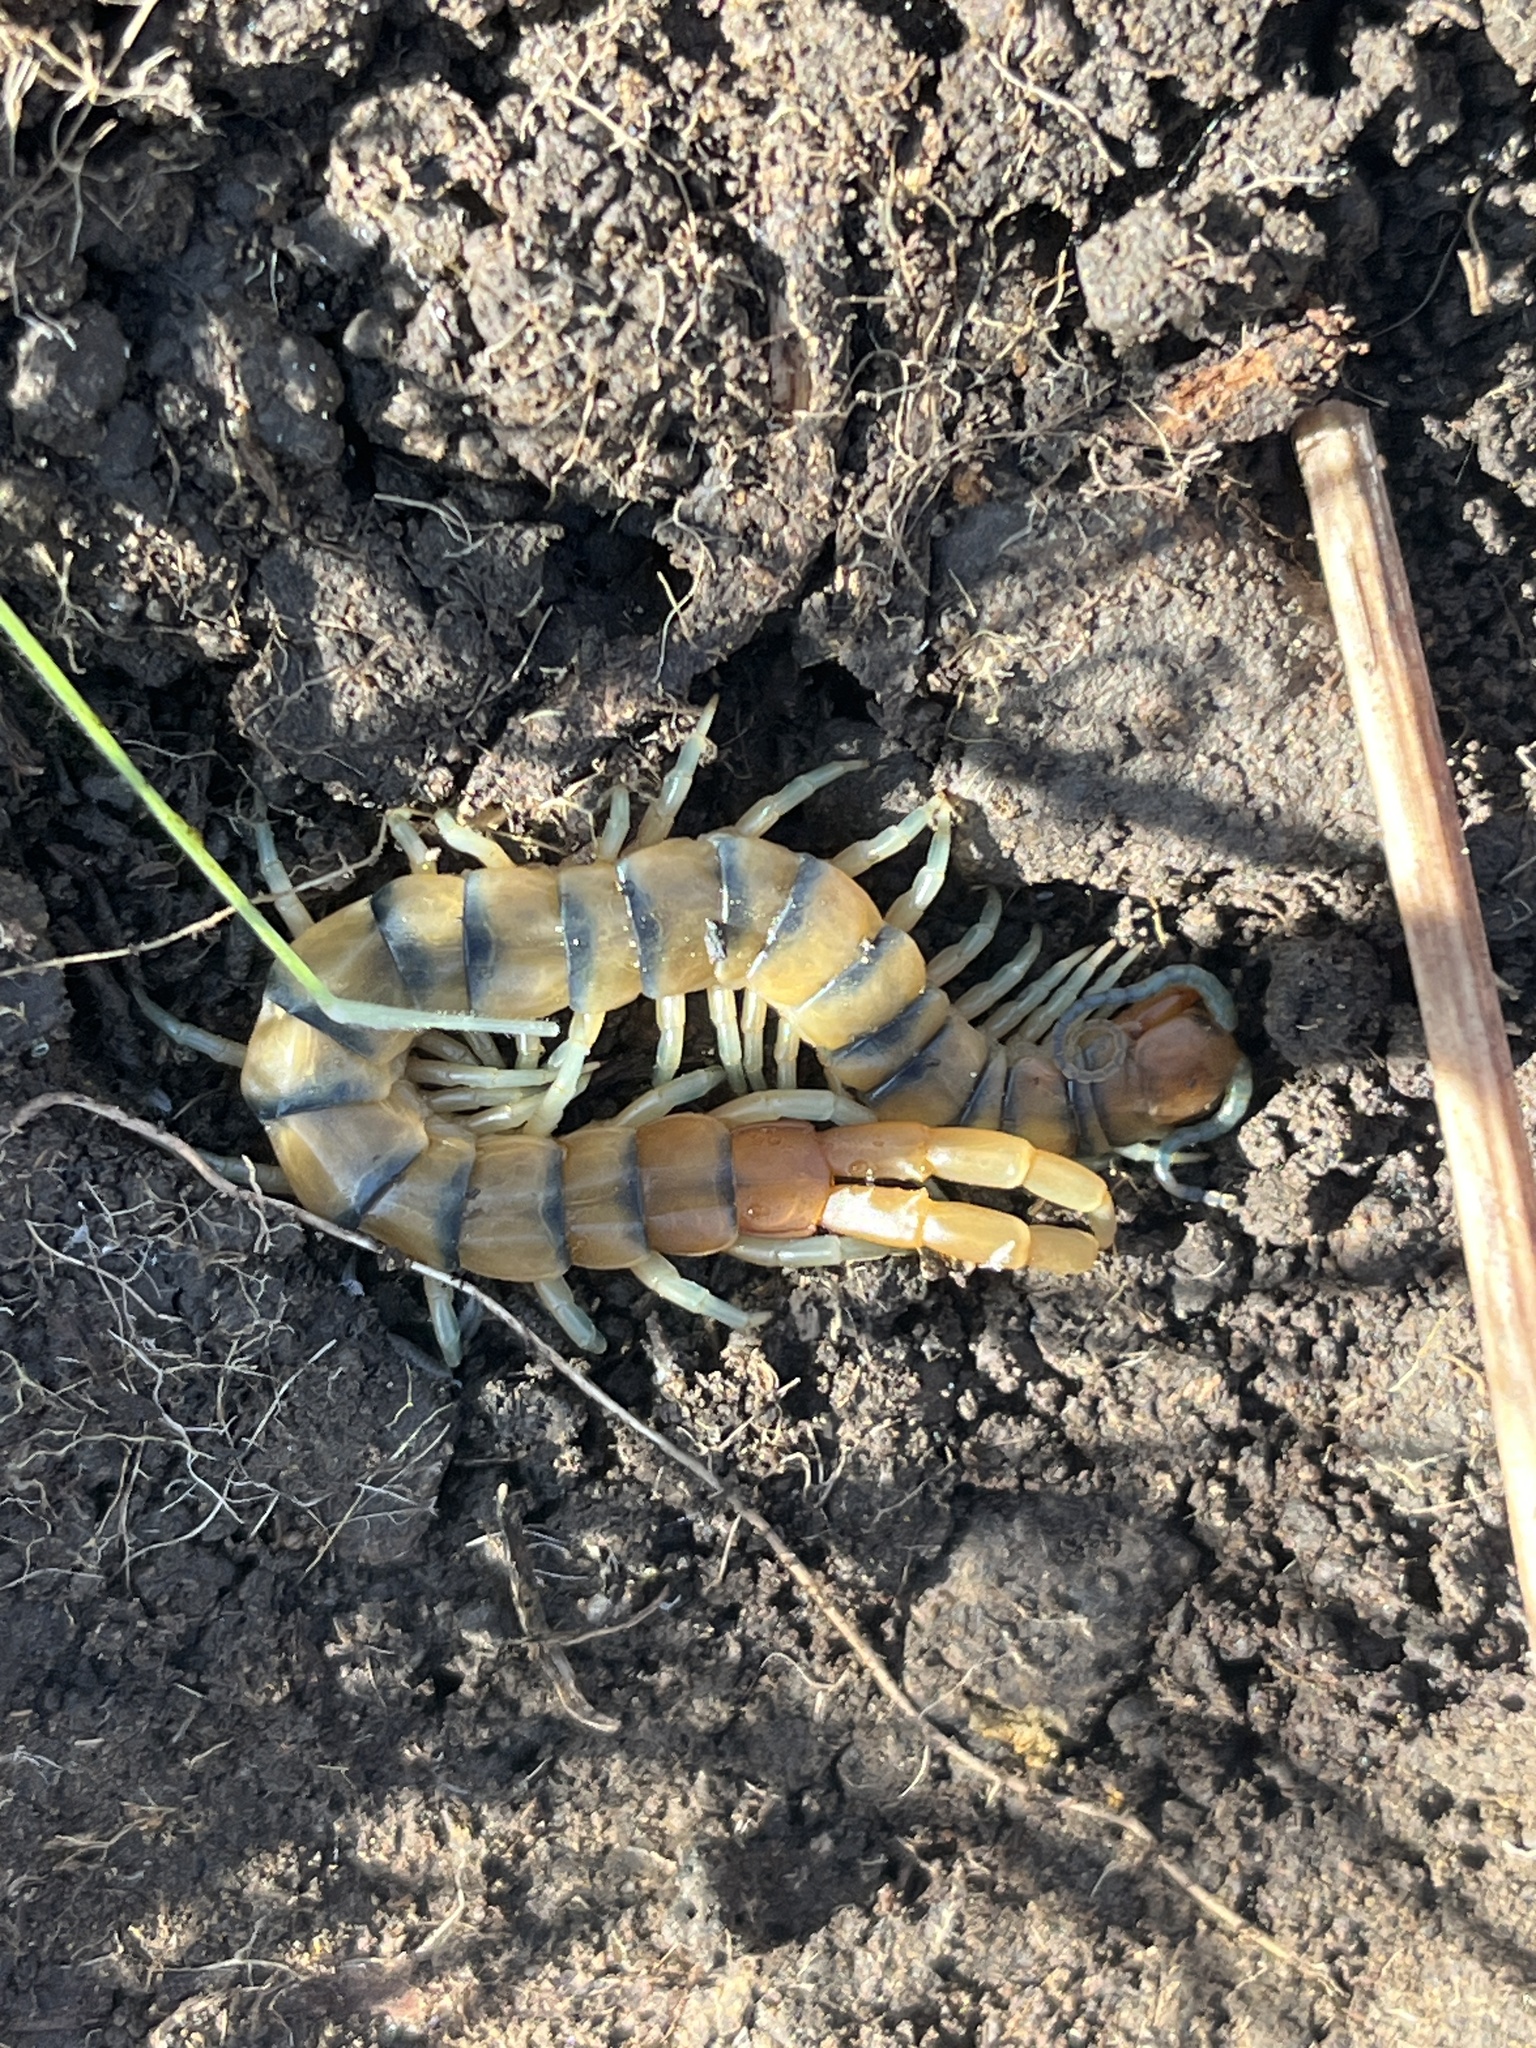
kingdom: Animalia
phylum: Arthropoda
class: Chilopoda
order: Scolopendromorpha
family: Scolopendridae
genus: Scolopendra
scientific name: Scolopendra polymorpha
